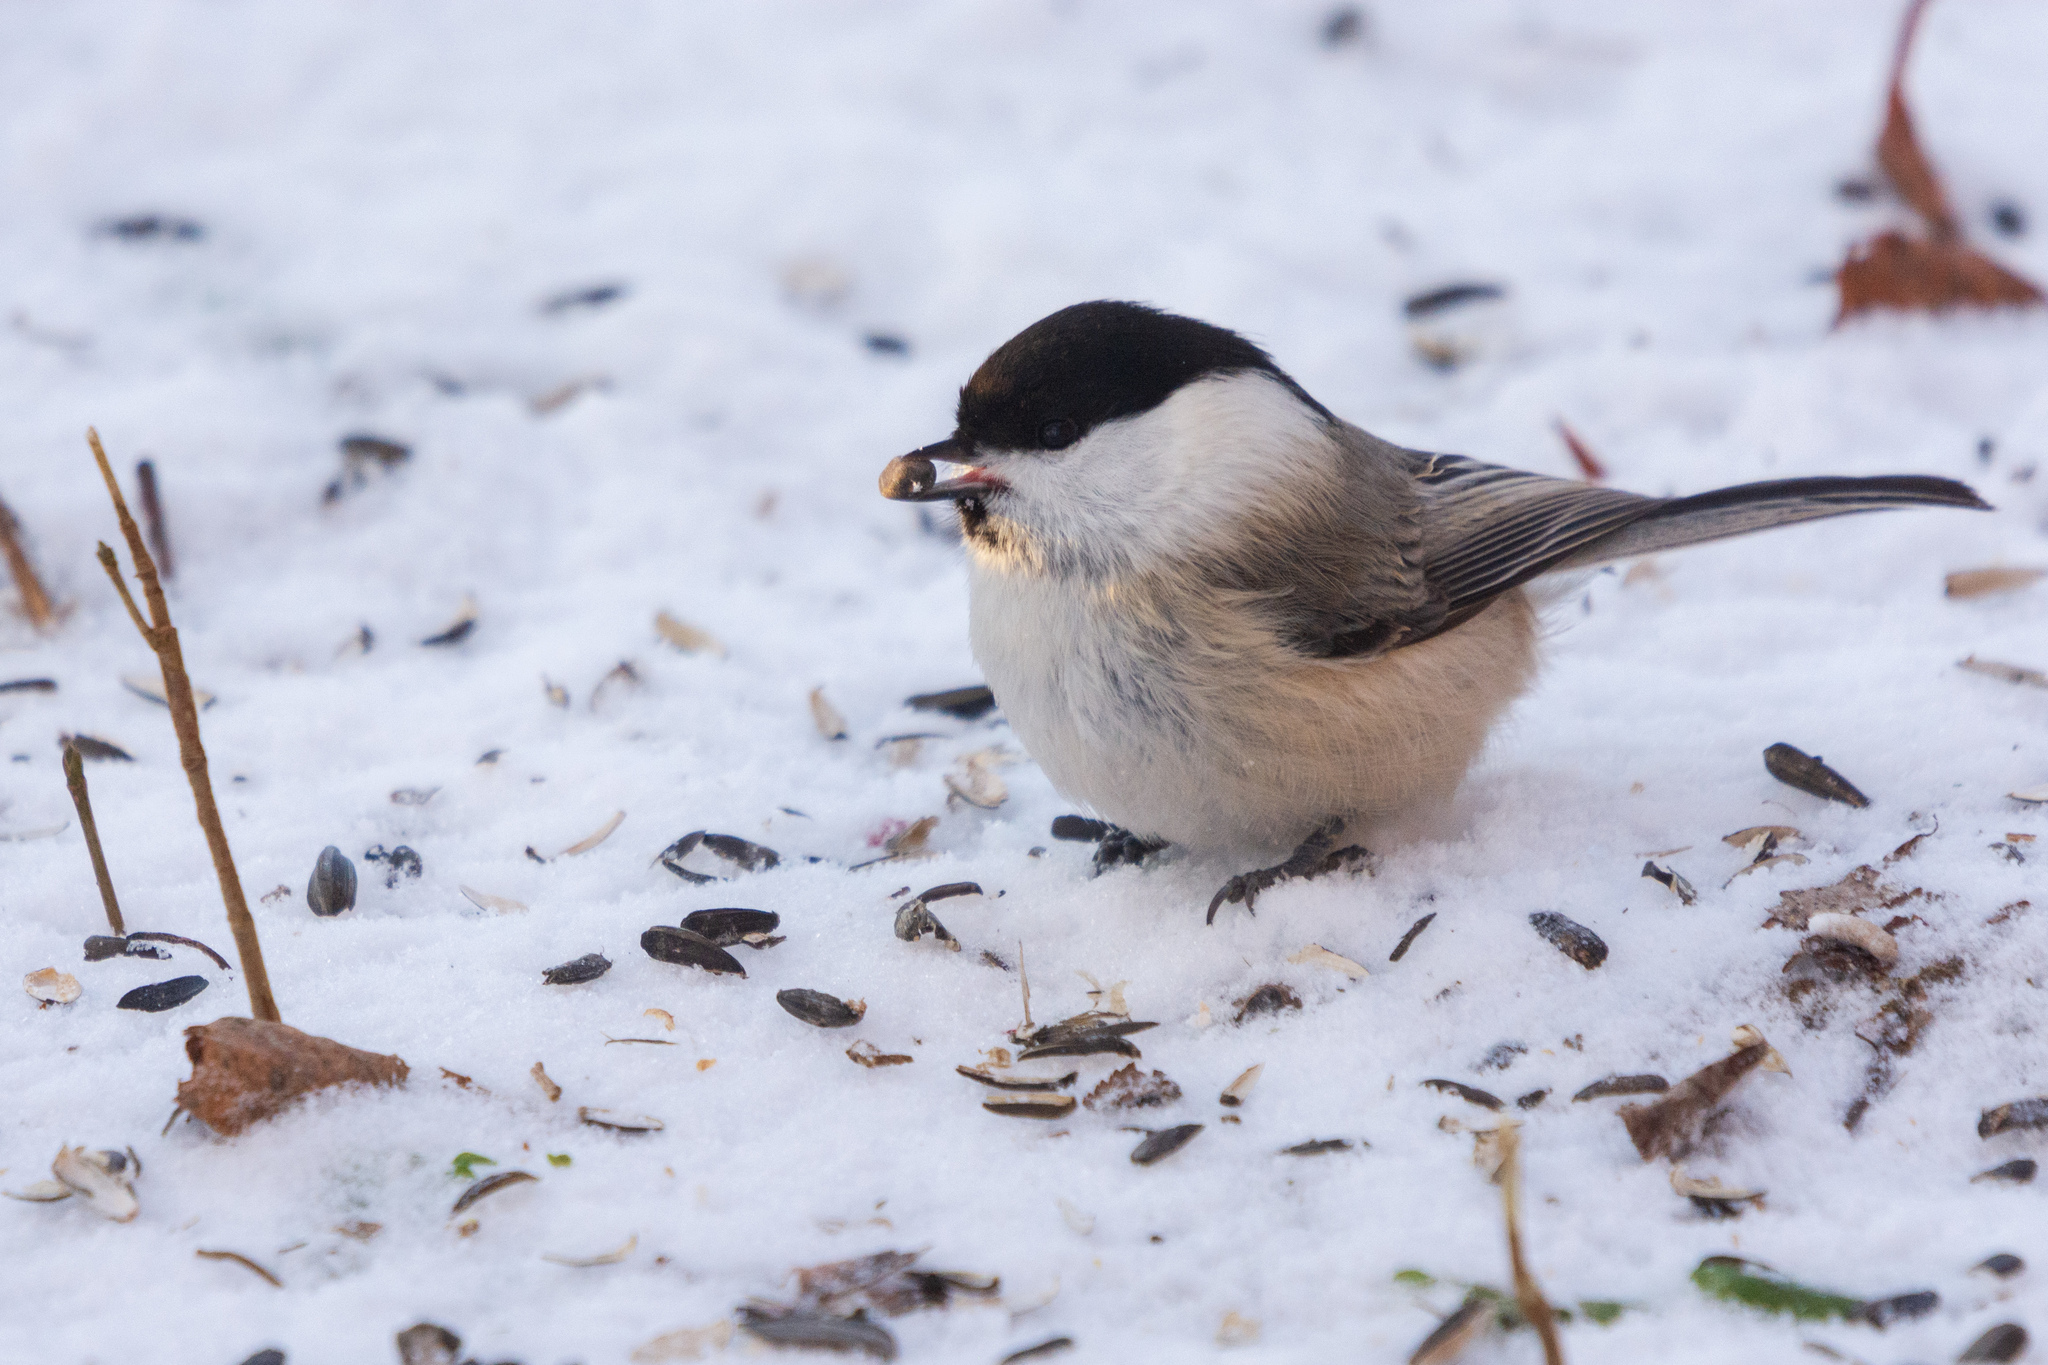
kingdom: Animalia
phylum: Chordata
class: Aves
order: Passeriformes
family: Paridae
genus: Poecile
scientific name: Poecile montanus
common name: Willow tit
